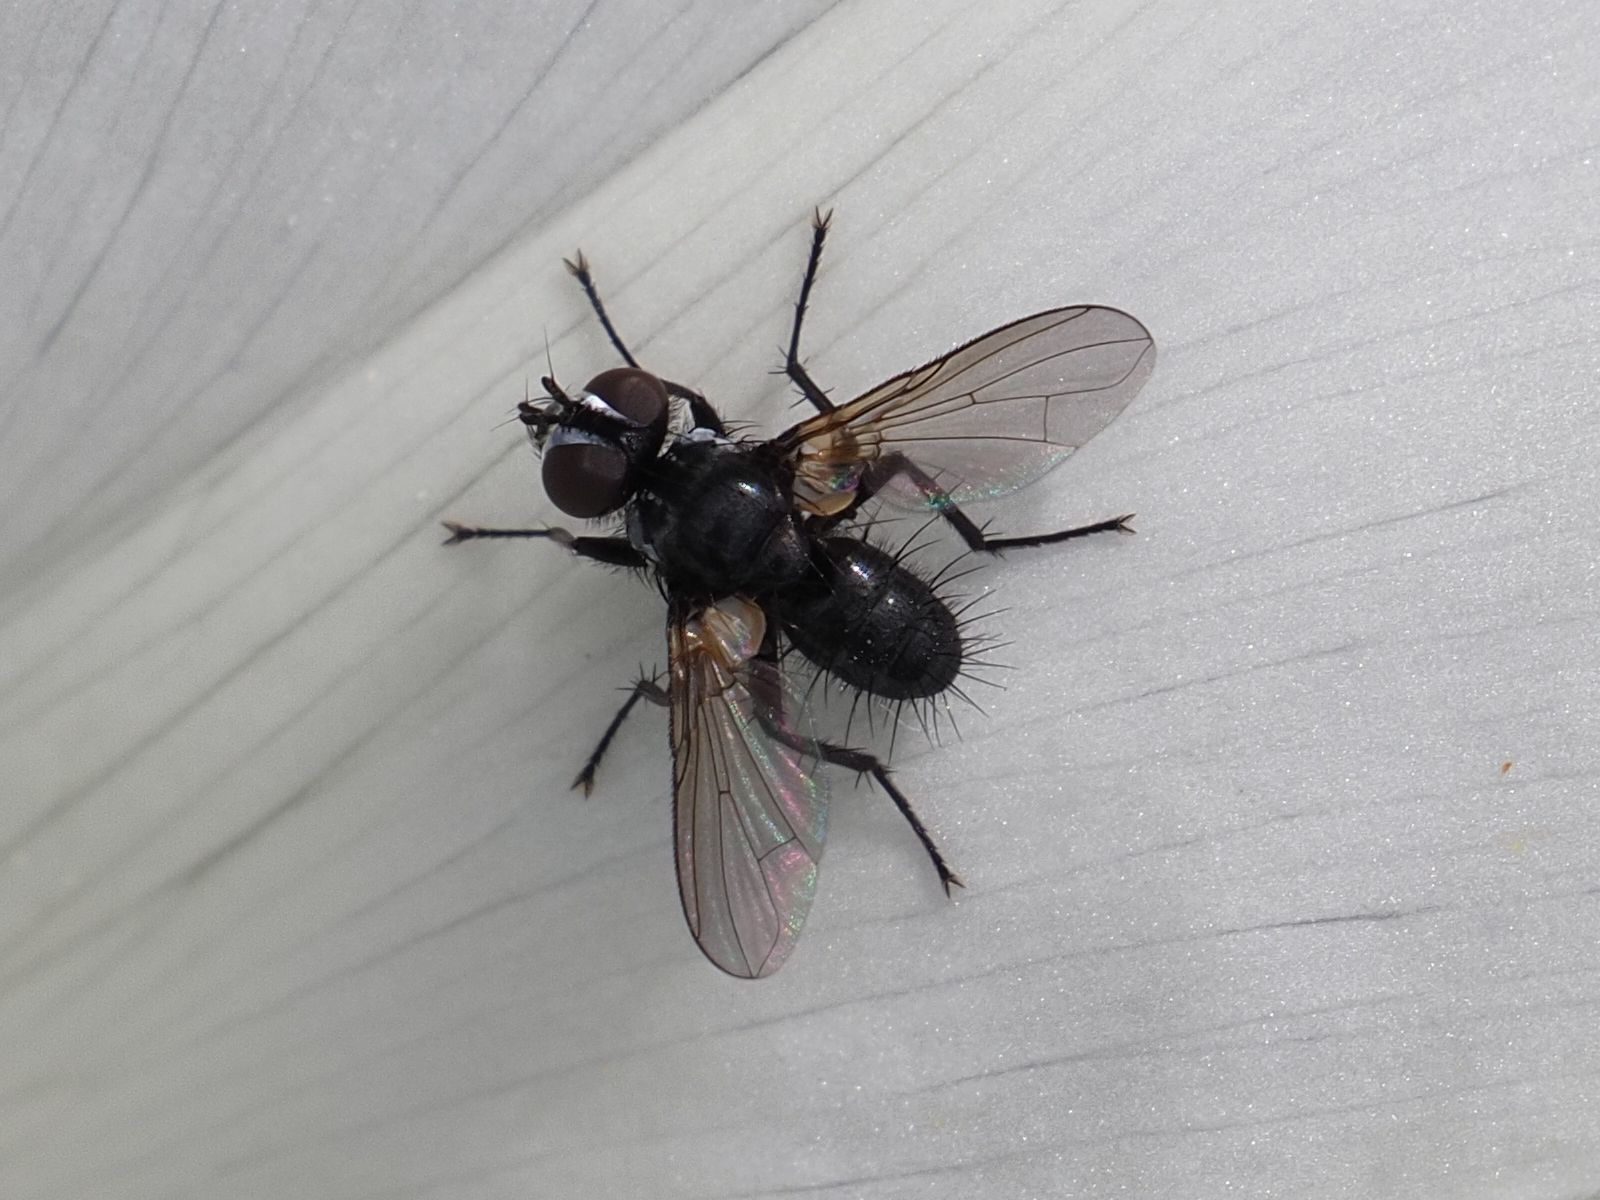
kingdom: Animalia
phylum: Arthropoda
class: Insecta
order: Diptera
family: Tachinidae
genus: Phania
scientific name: Phania funesta
